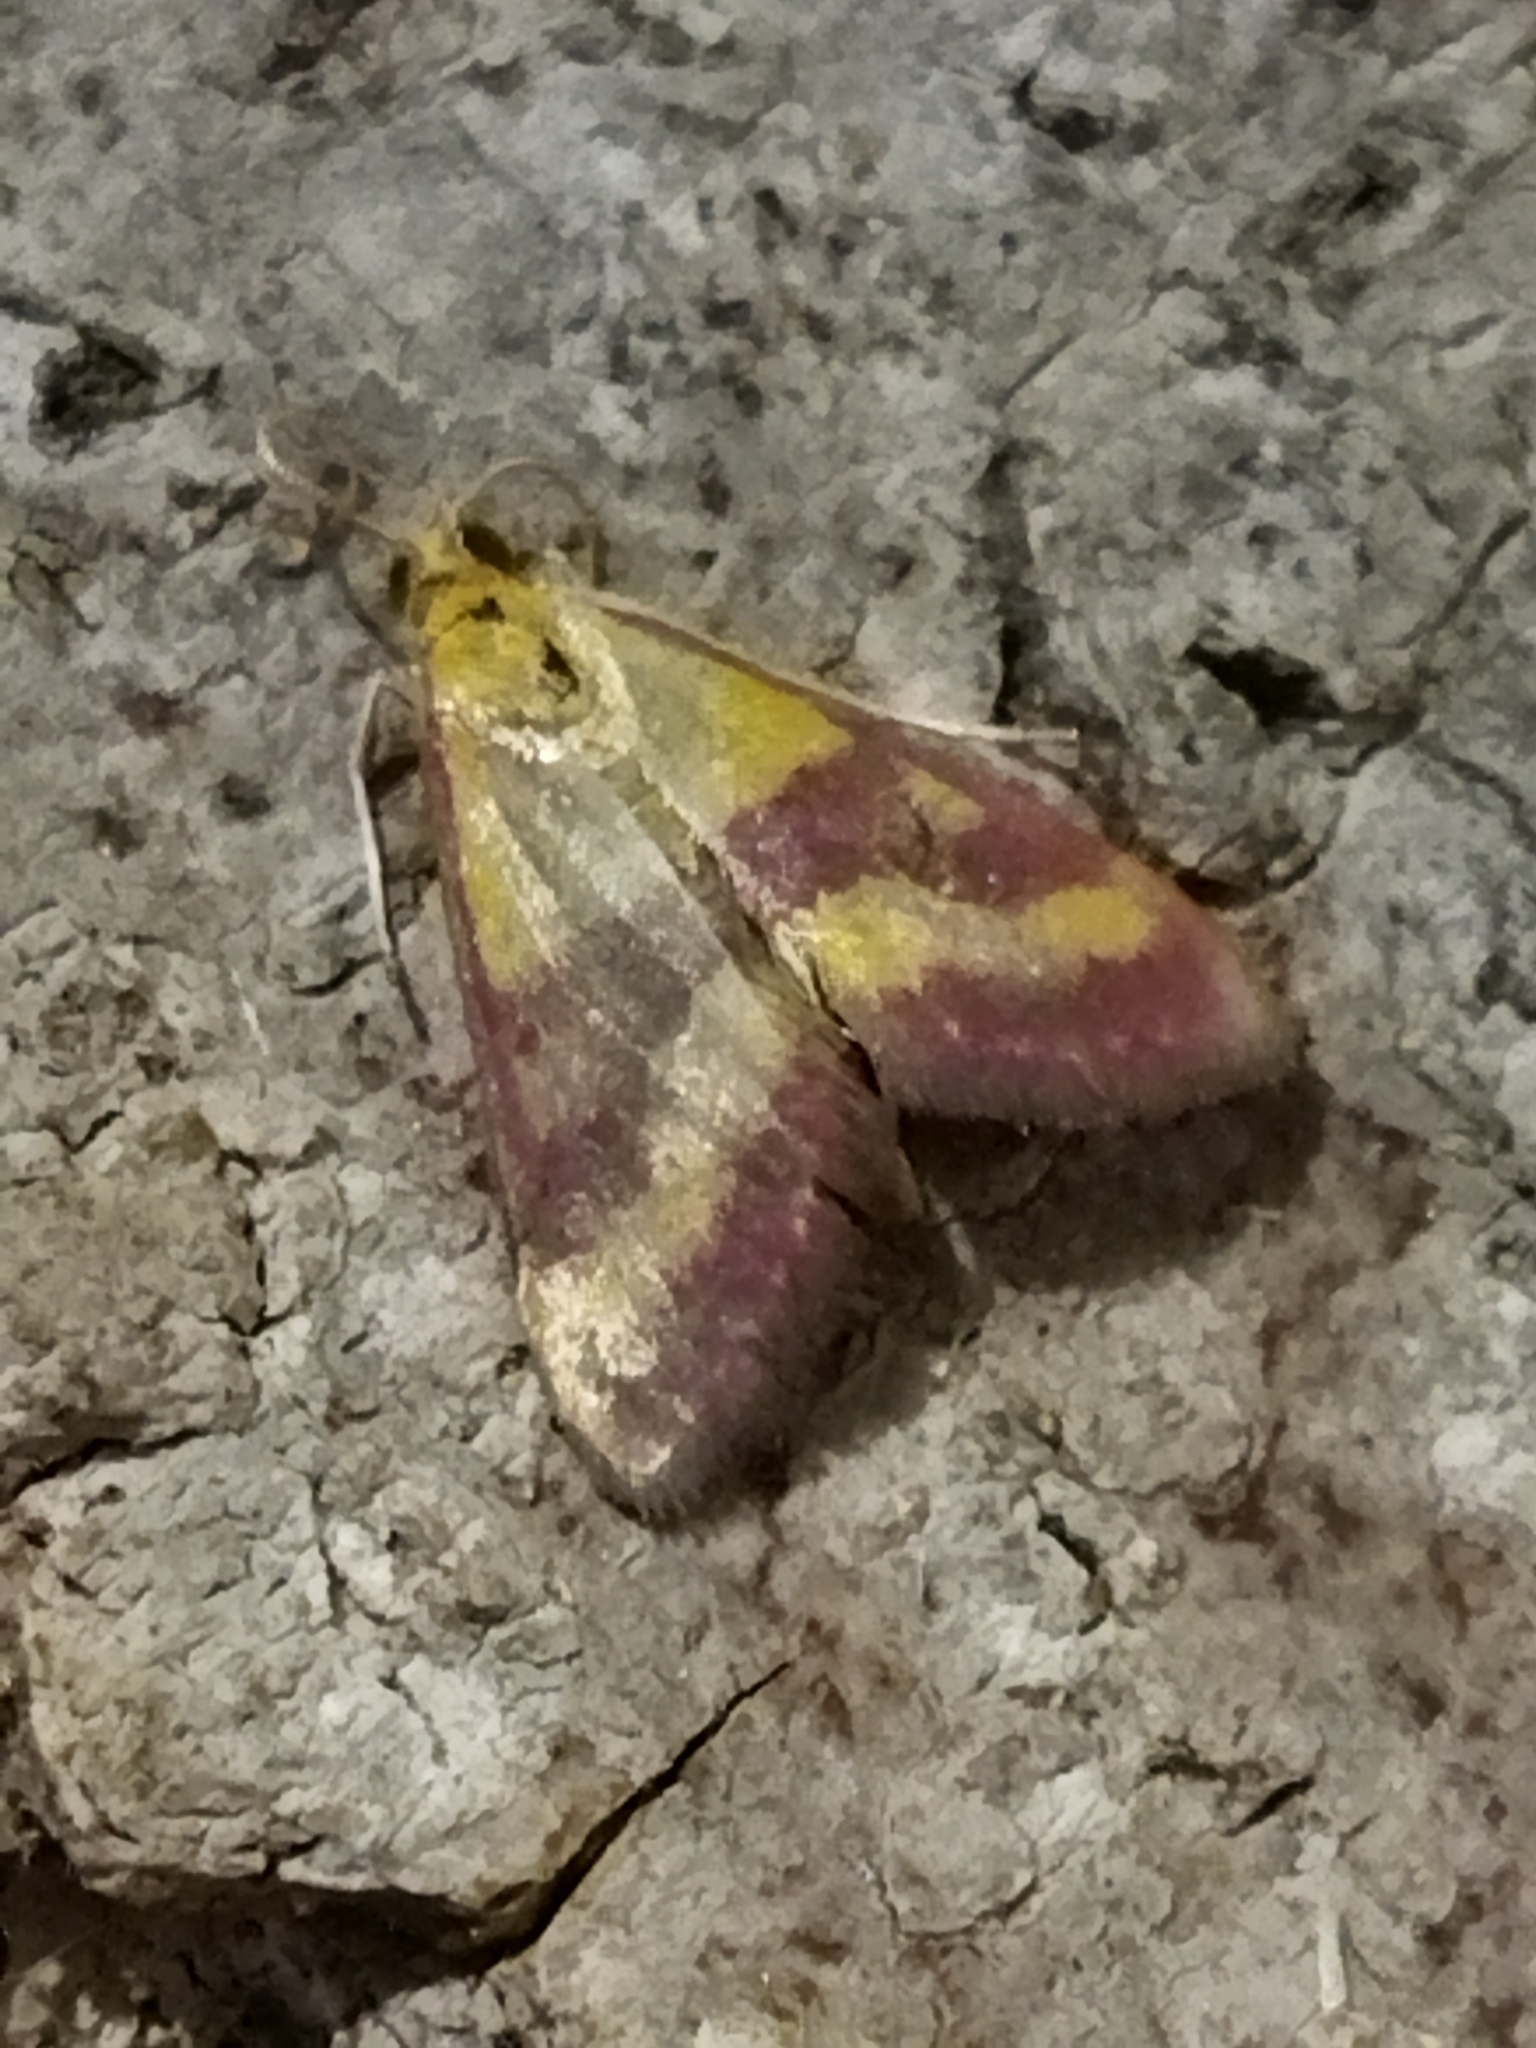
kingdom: Animalia
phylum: Arthropoda
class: Insecta
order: Lepidoptera
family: Crambidae
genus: Pyrausta
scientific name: Pyrausta sanguinalis
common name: Scarce crimson and gold
